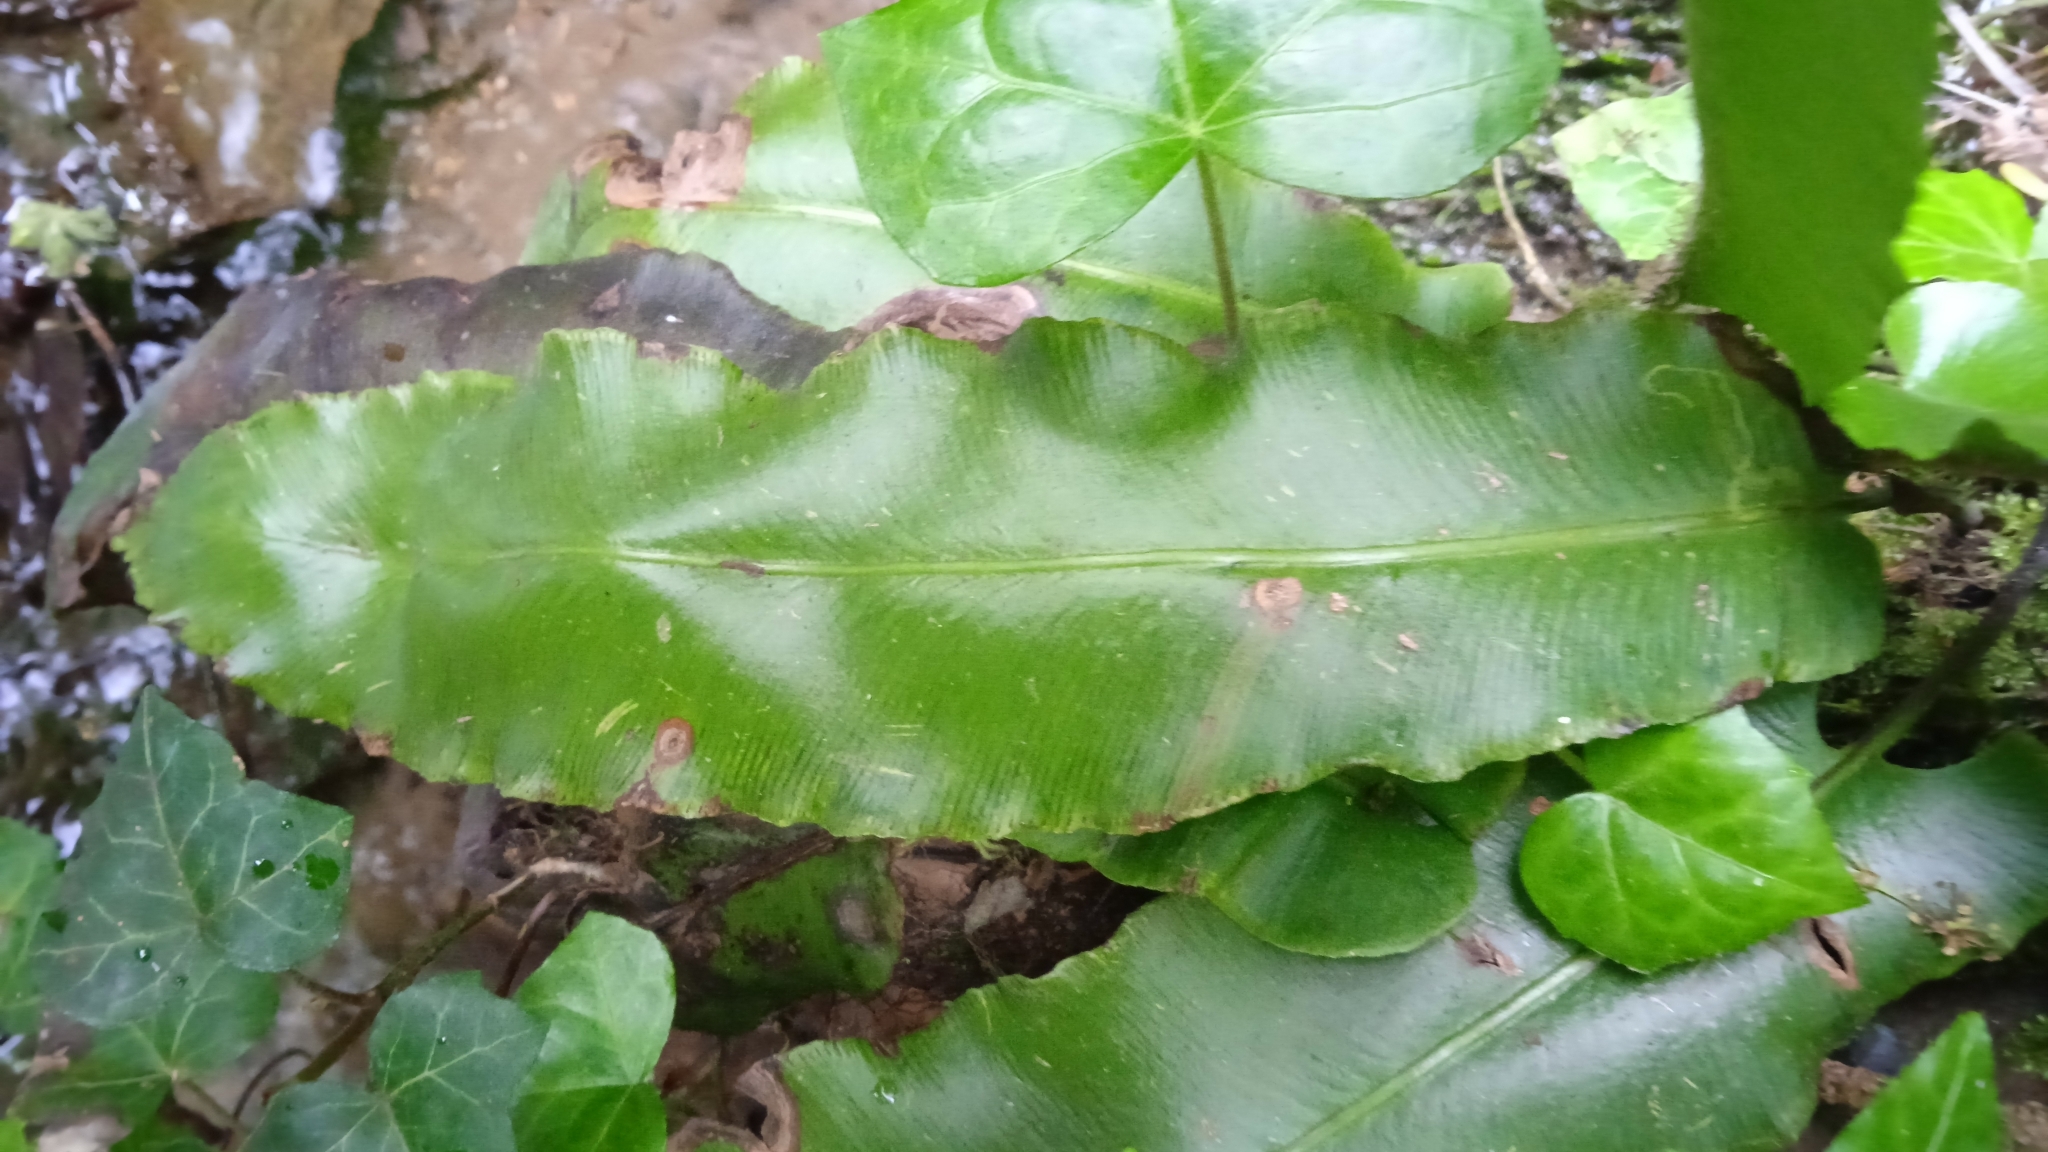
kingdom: Plantae
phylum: Tracheophyta
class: Polypodiopsida
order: Polypodiales
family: Aspleniaceae
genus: Asplenium
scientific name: Asplenium scolopendrium
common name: Hart's-tongue fern
